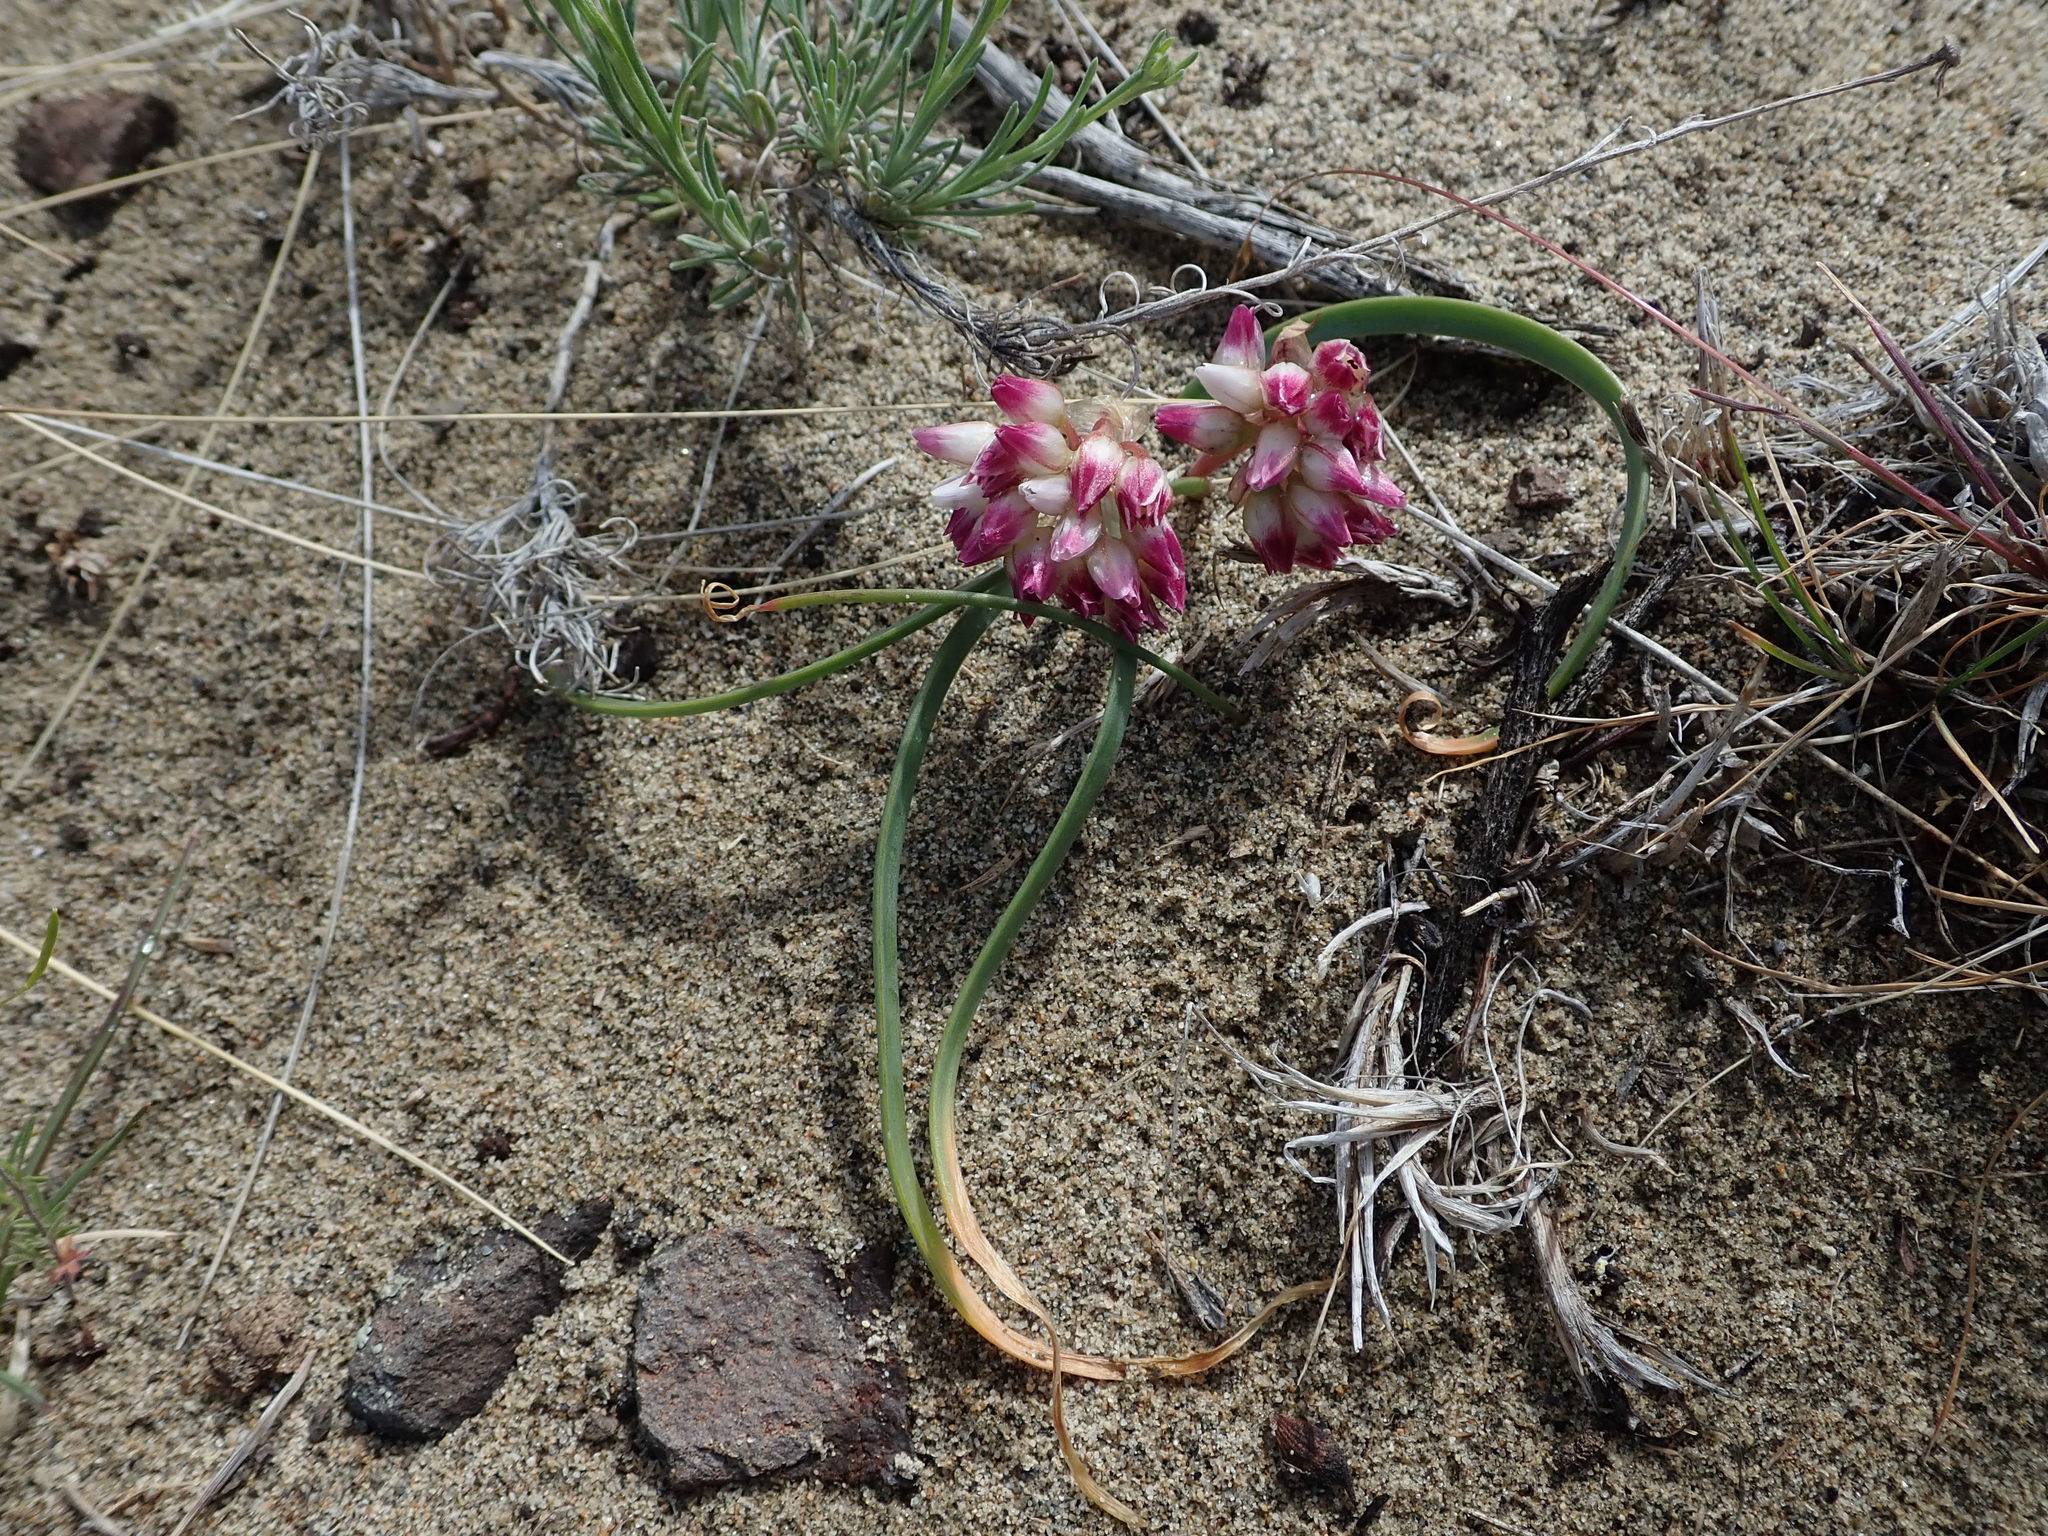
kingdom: Plantae
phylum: Tracheophyta
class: Liliopsida
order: Asparagales
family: Amaryllidaceae
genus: Allium
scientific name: Allium robinsonii
